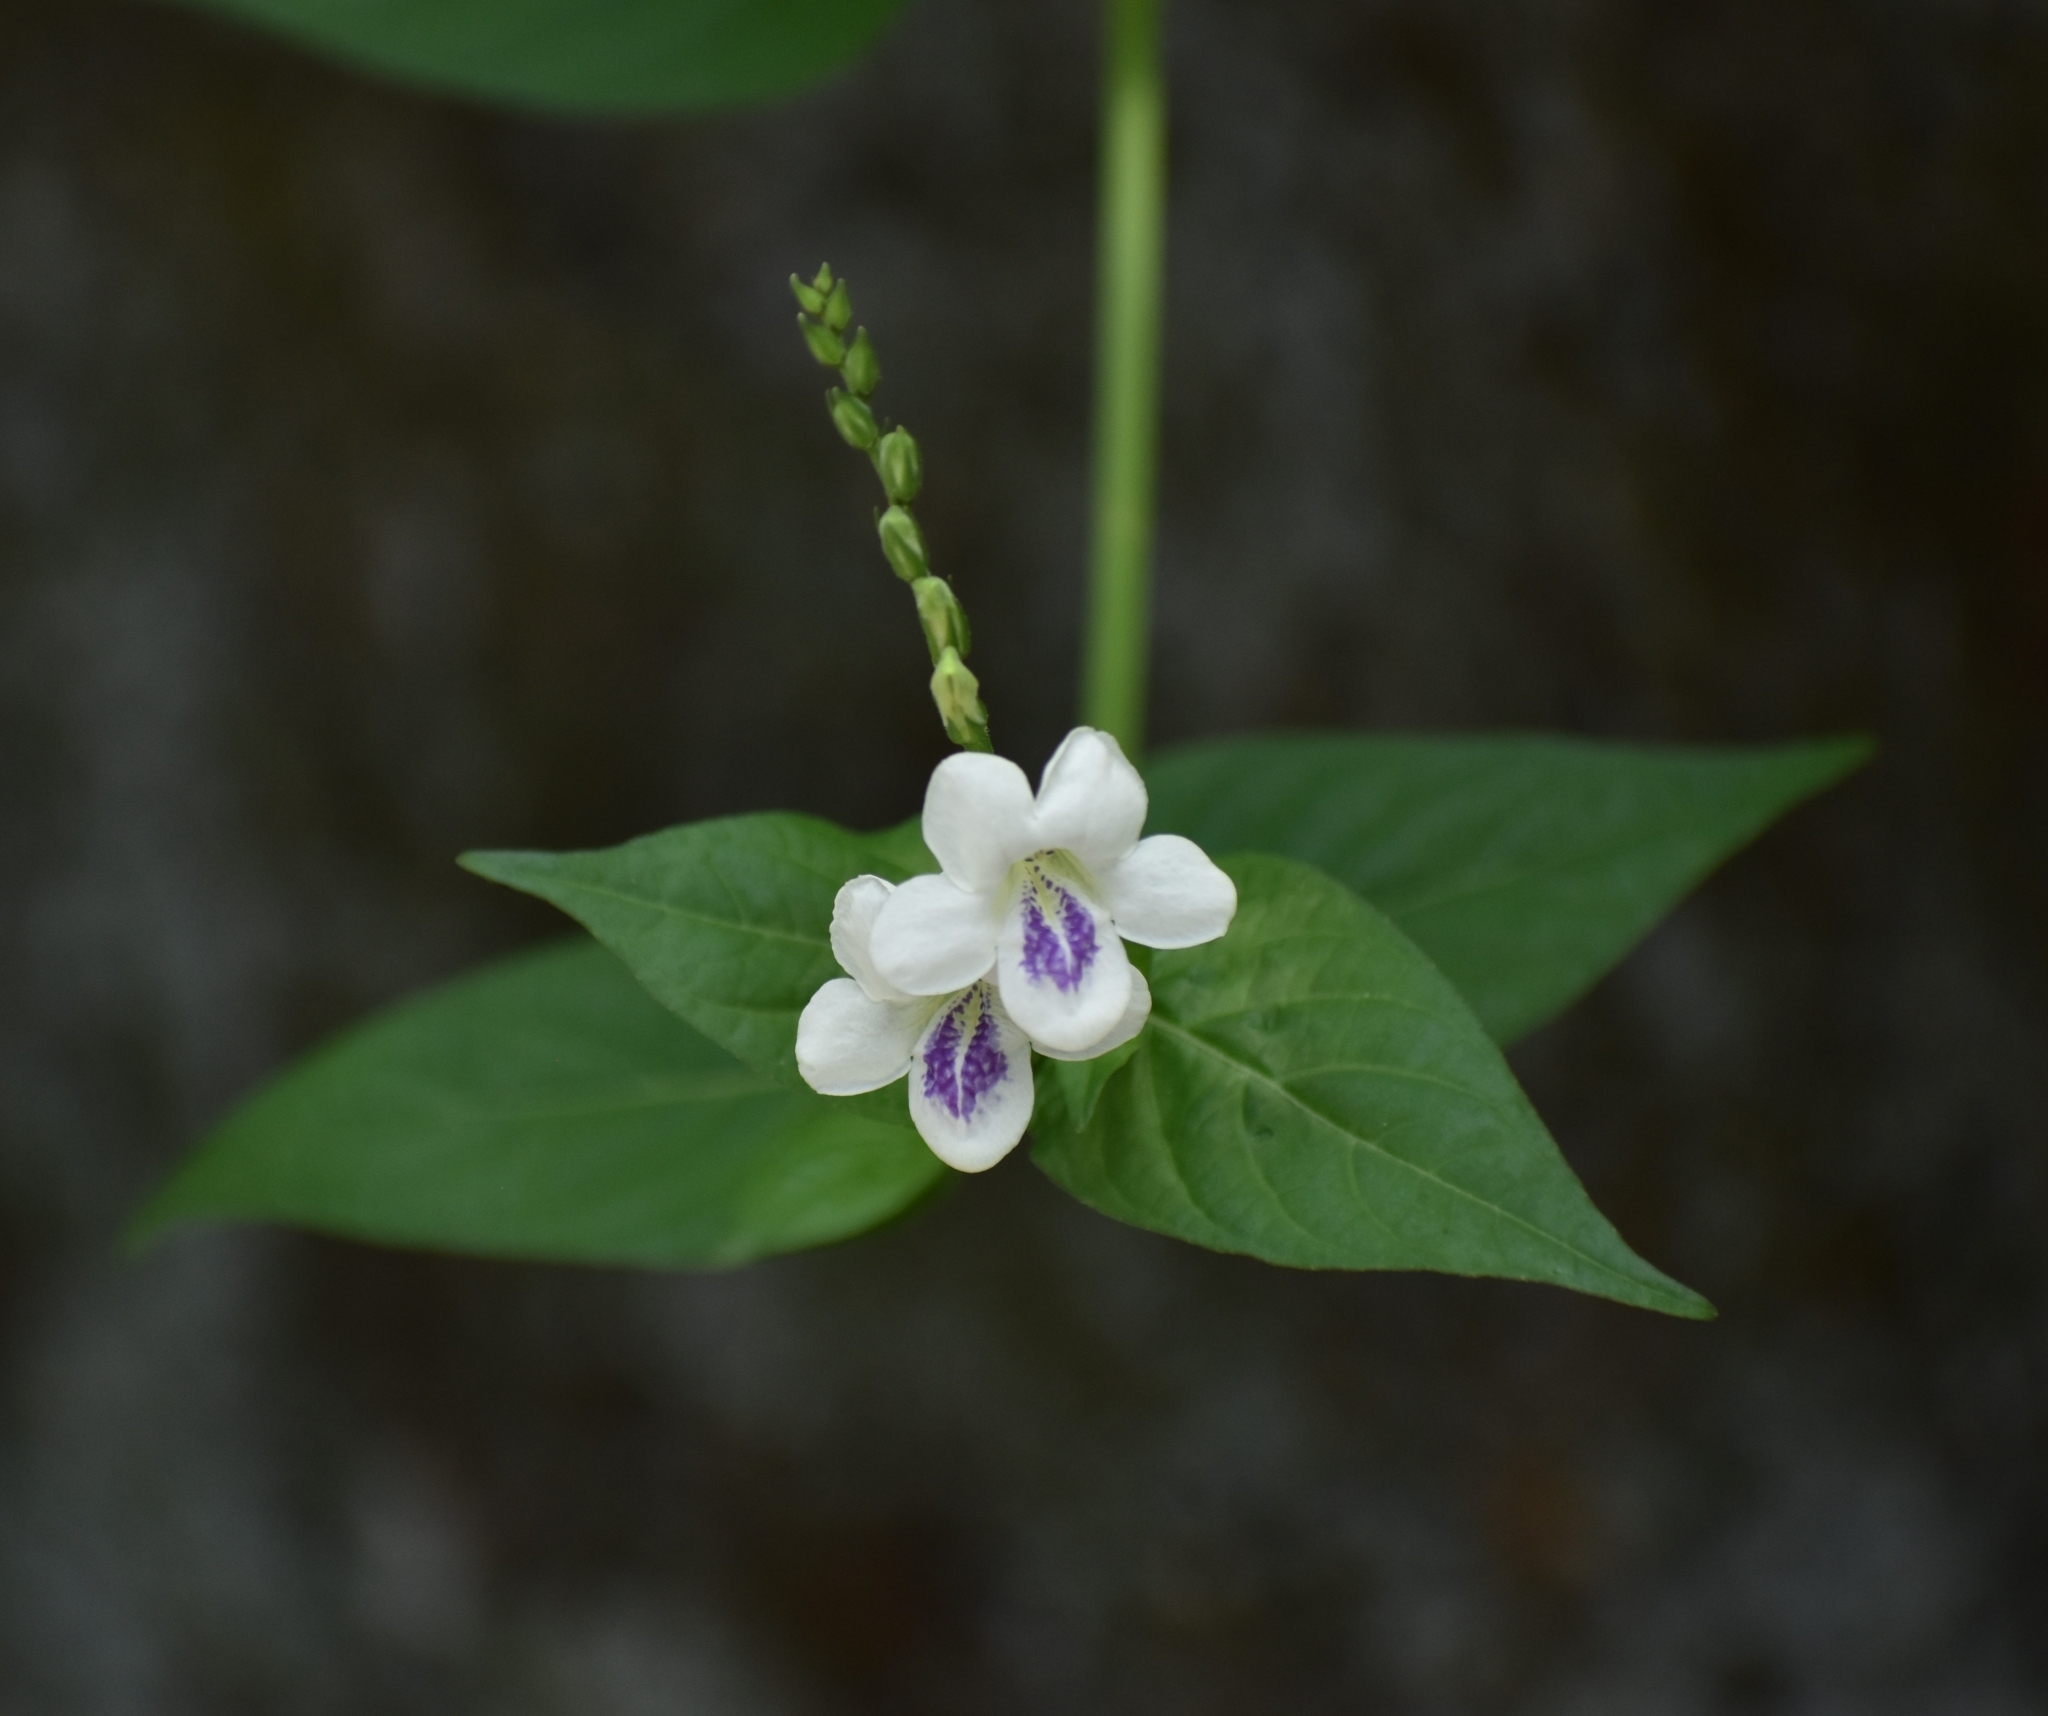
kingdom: Plantae
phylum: Tracheophyta
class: Magnoliopsida
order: Lamiales
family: Acanthaceae
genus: Asystasia
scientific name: Asystasia intrusa
